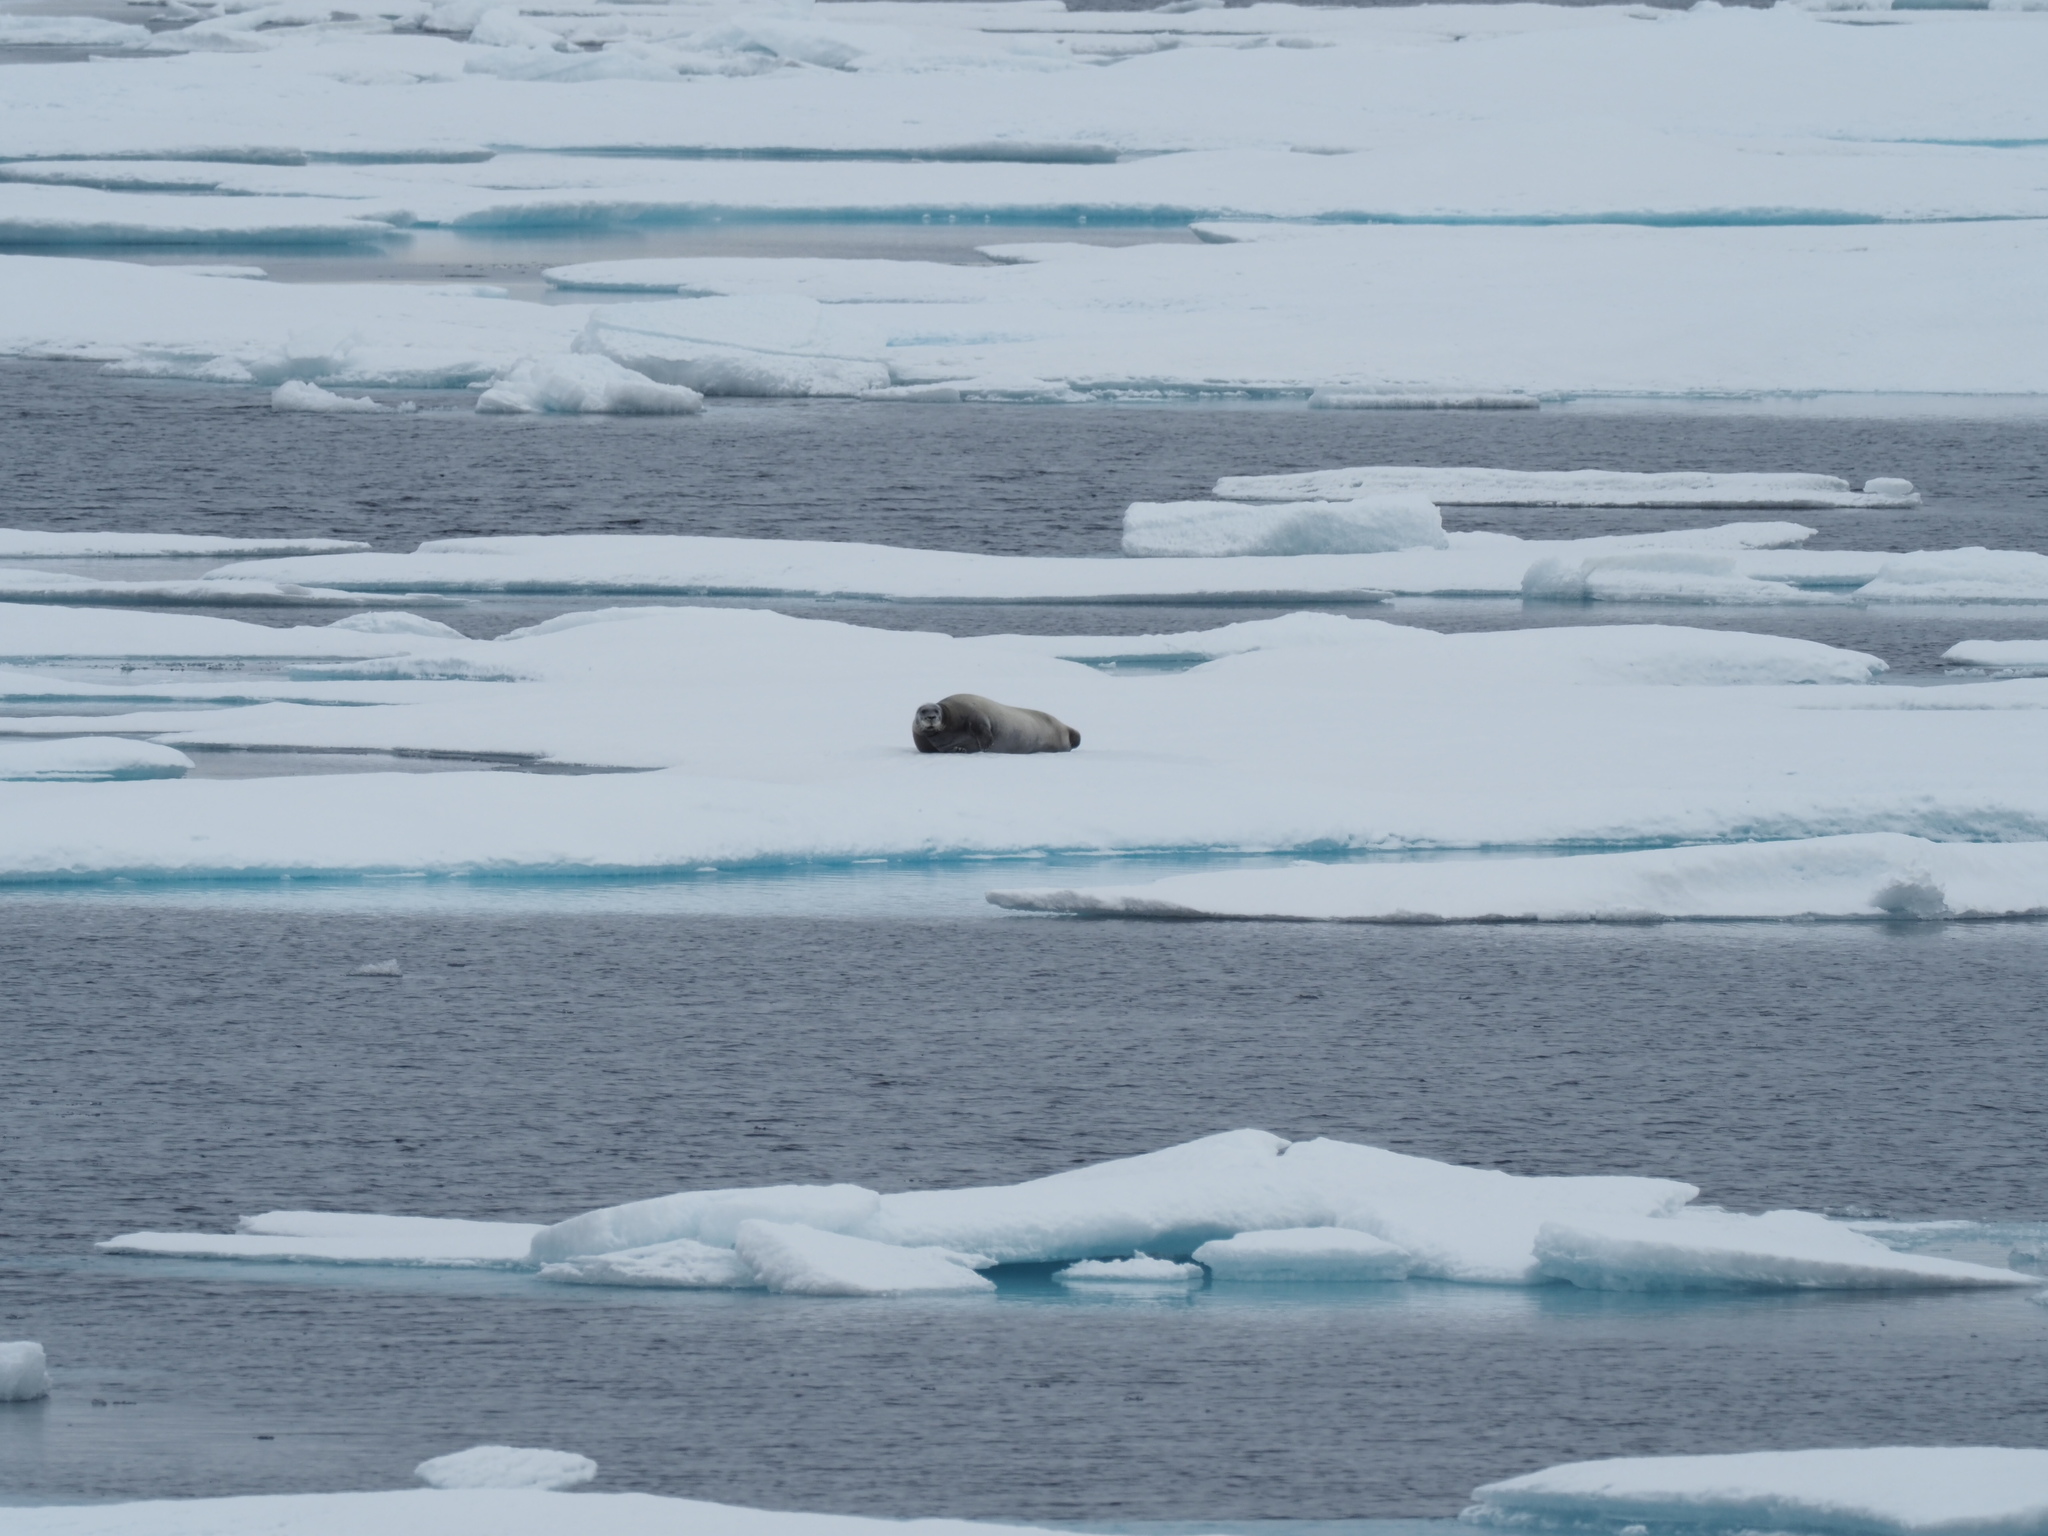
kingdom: Animalia
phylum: Chordata
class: Mammalia
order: Carnivora
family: Phocidae
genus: Erignathus
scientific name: Erignathus barbatus
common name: Bearded seal
